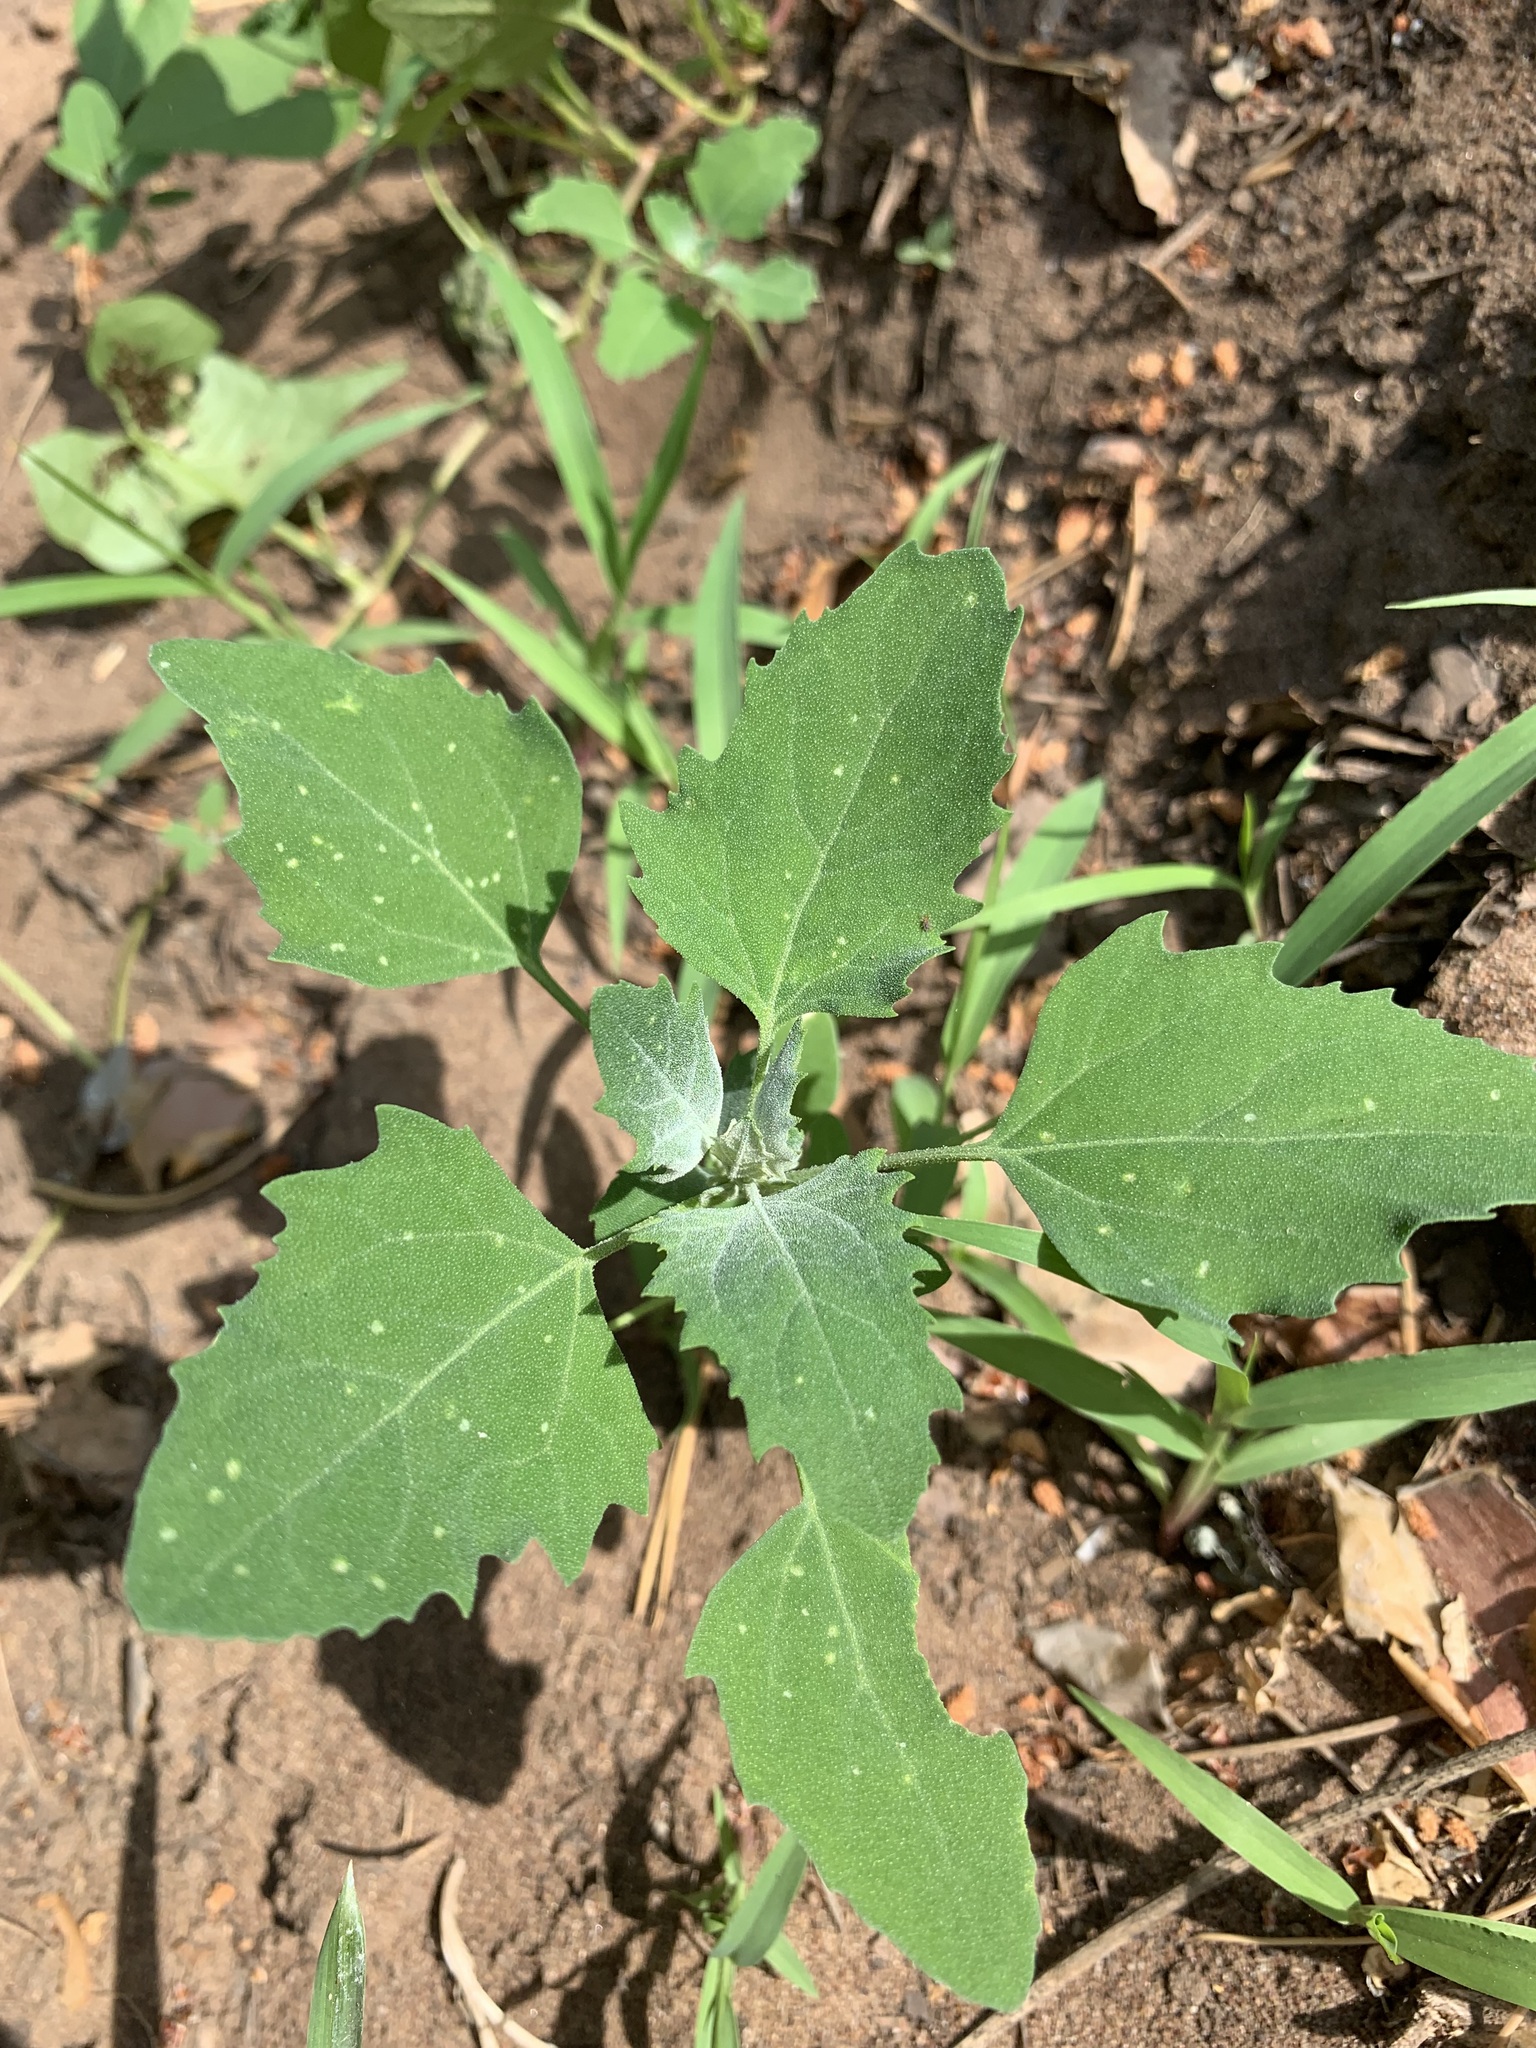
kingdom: Plantae
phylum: Tracheophyta
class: Magnoliopsida
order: Caryophyllales
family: Amaranthaceae
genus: Chenopodium
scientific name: Chenopodium album
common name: Fat-hen
